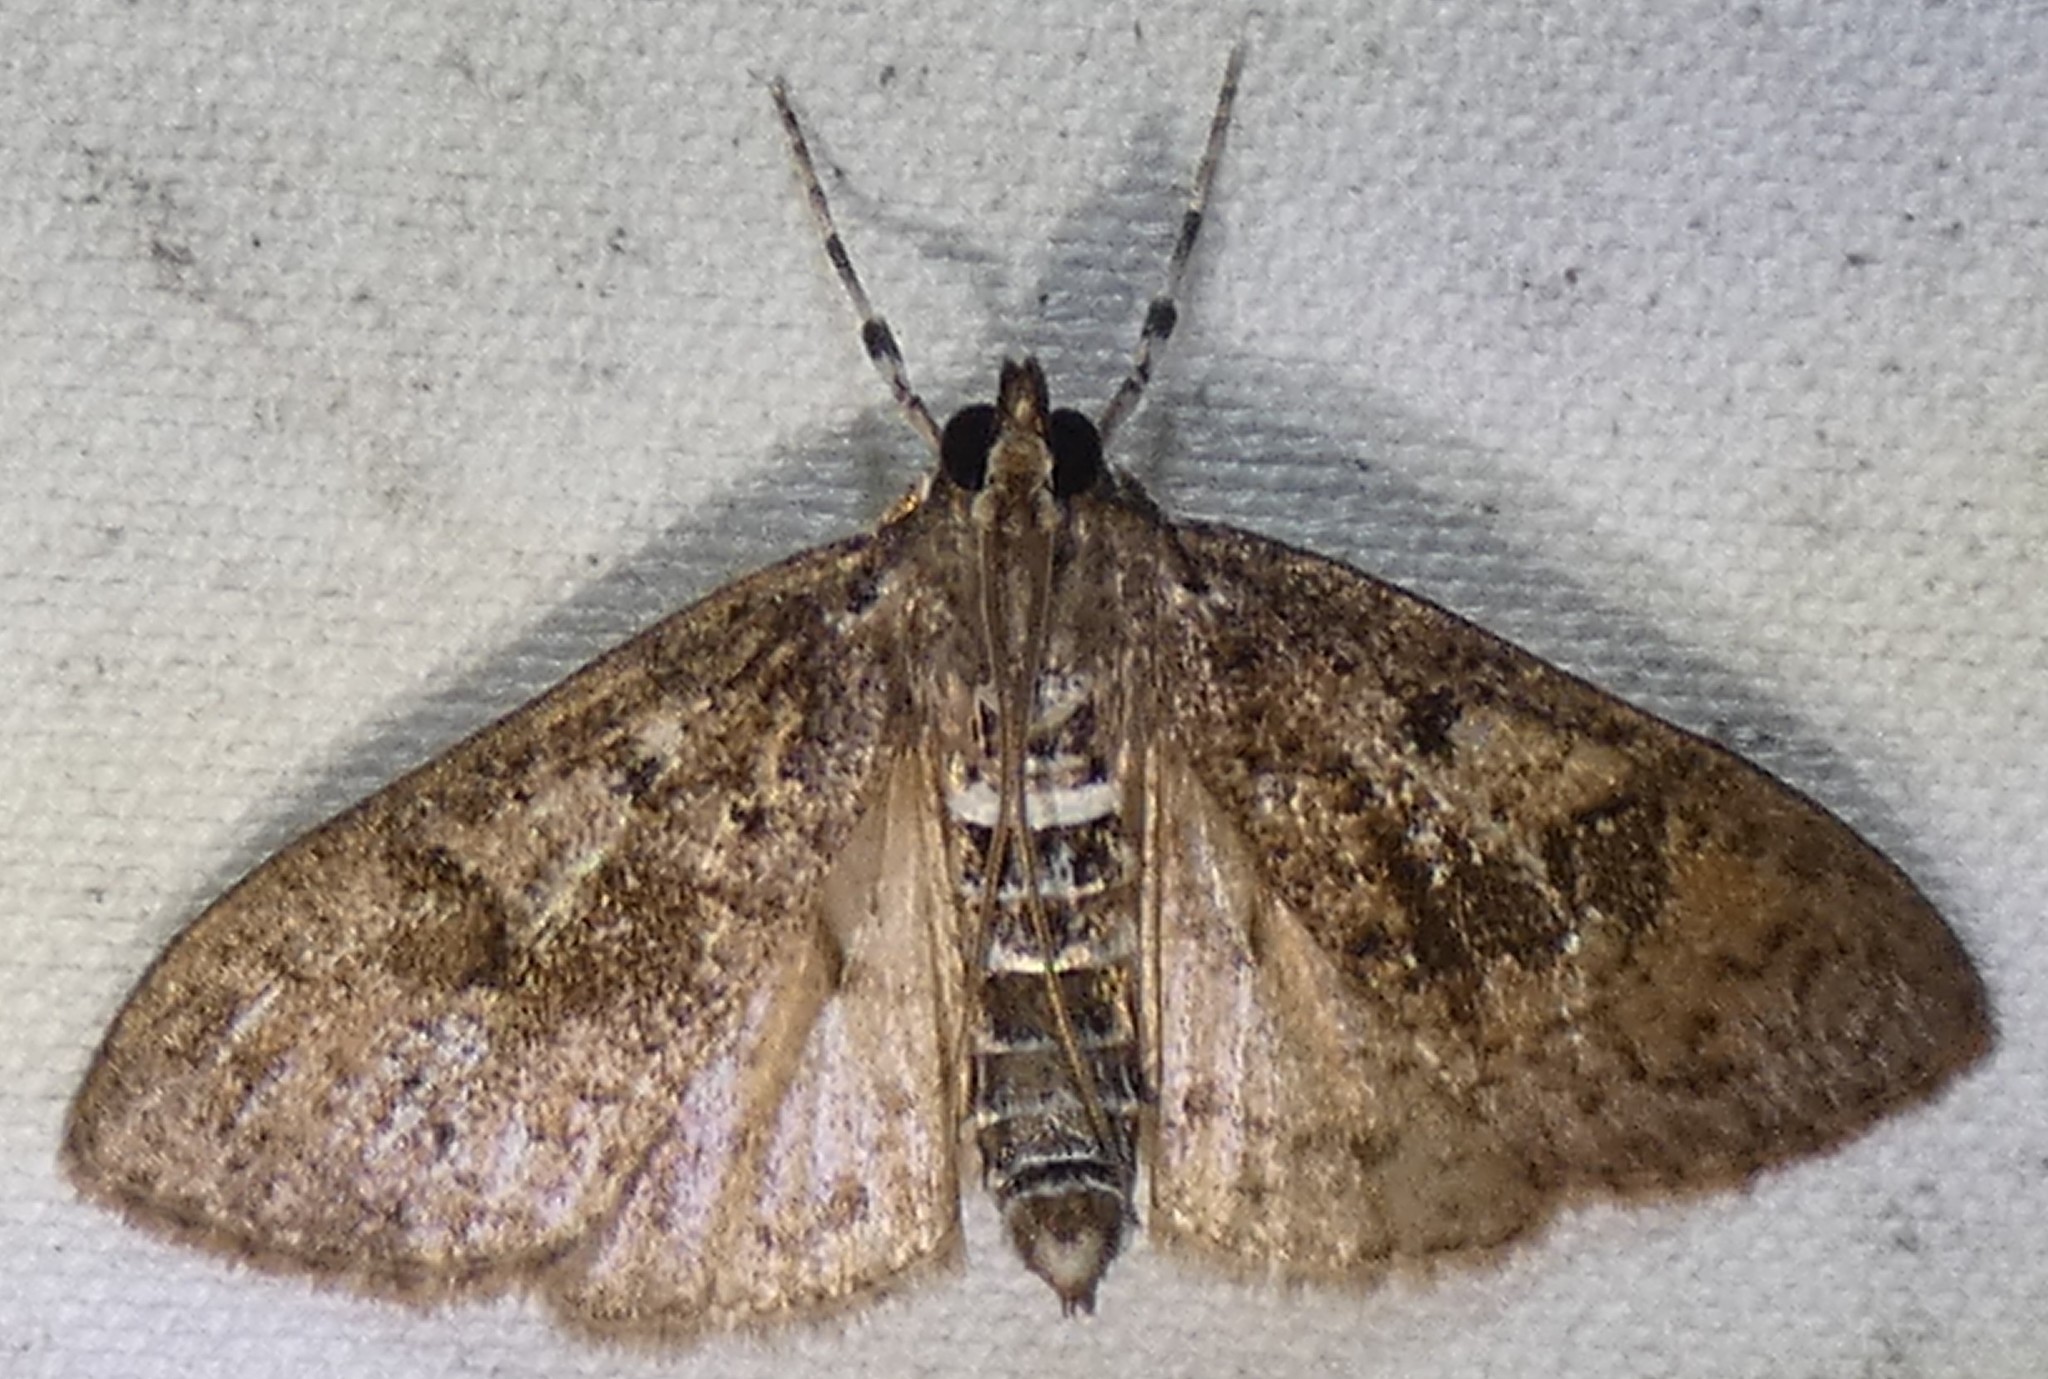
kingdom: Animalia
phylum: Arthropoda
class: Insecta
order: Lepidoptera
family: Crambidae
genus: Palpita
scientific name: Palpita magniferalis
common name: Splendid palpita moth
